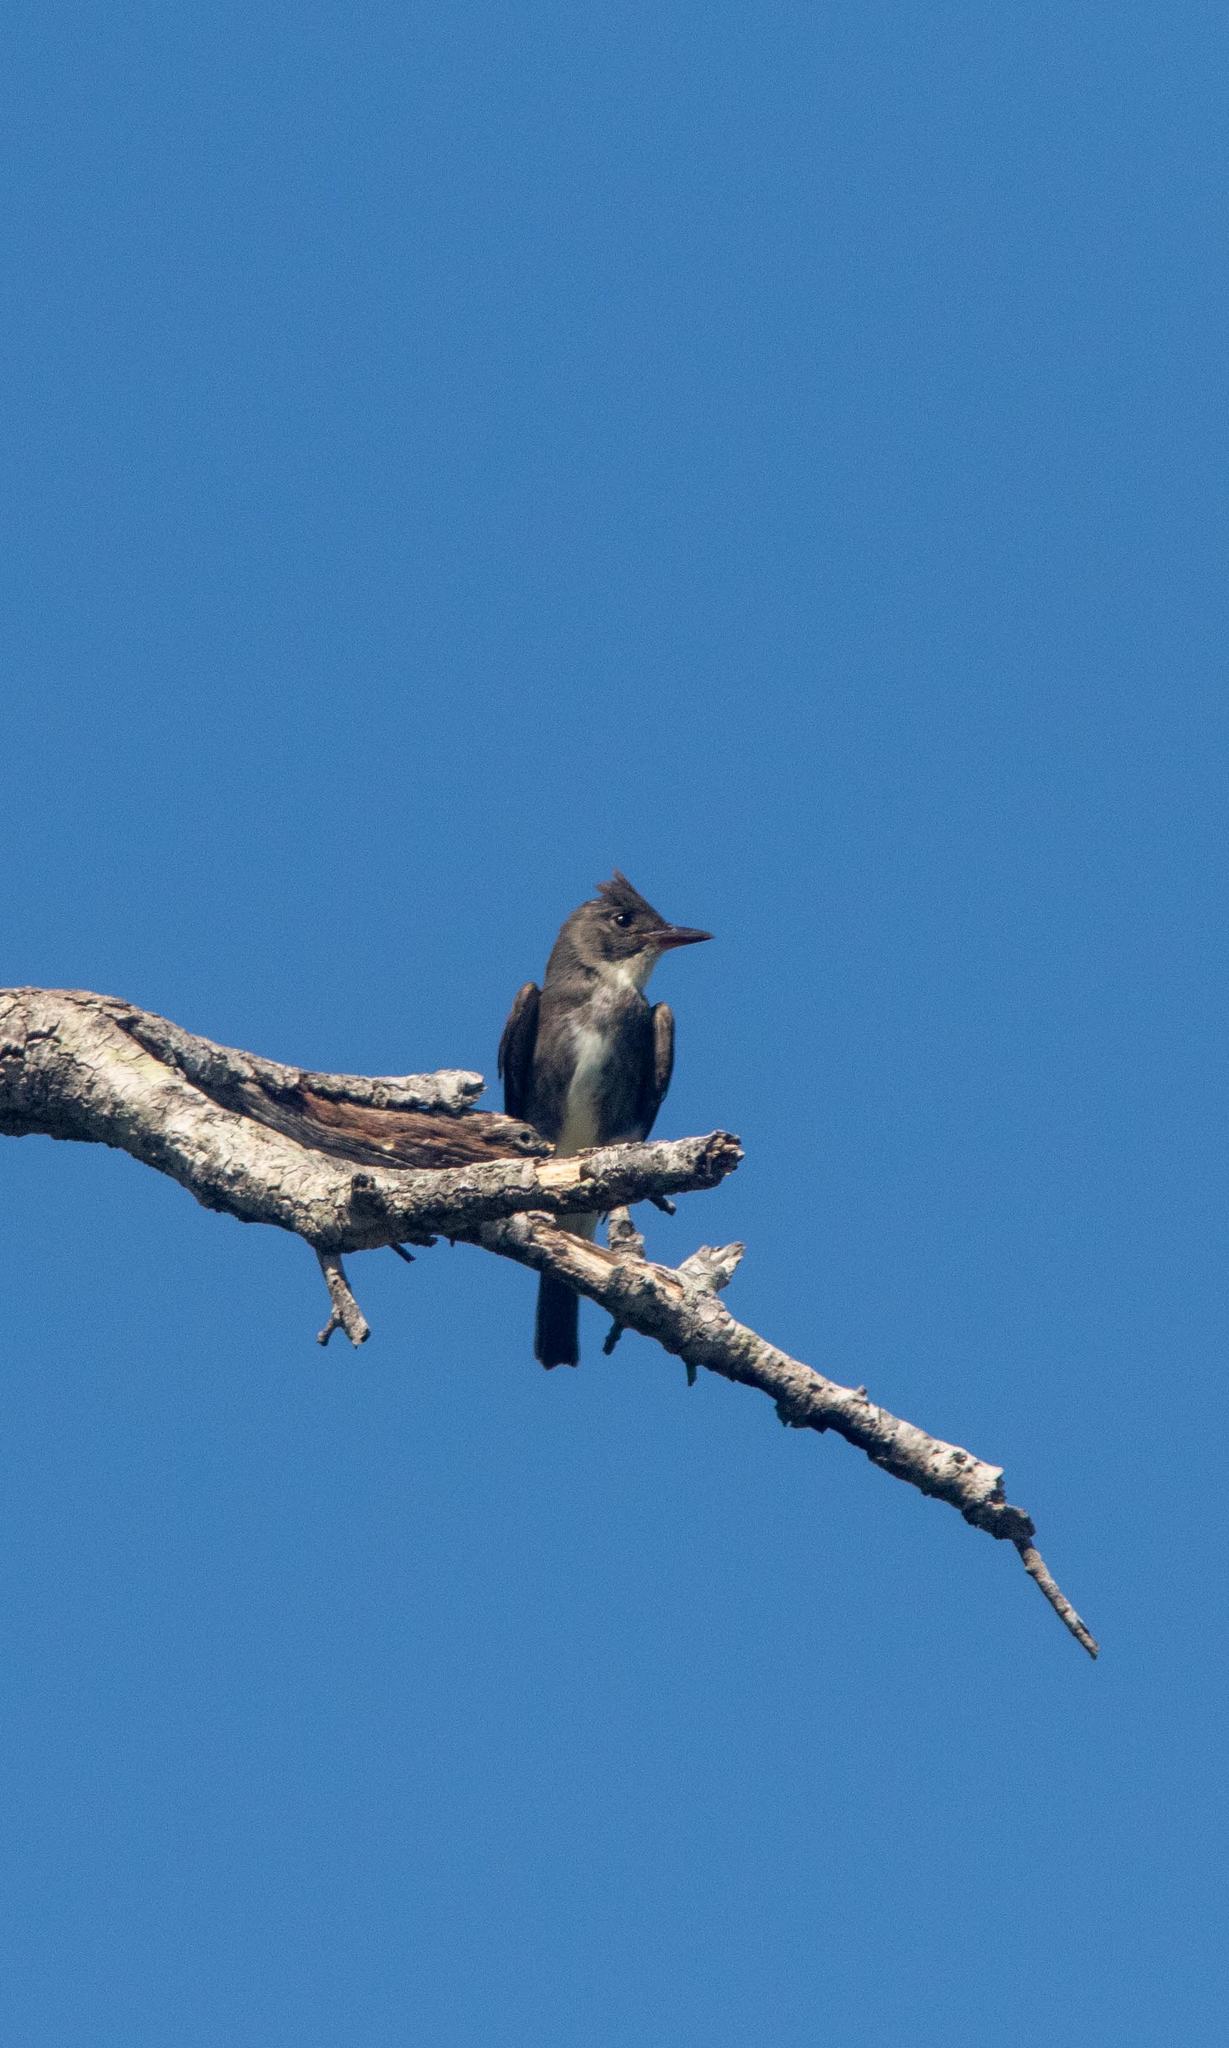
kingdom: Animalia
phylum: Chordata
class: Aves
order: Passeriformes
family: Tyrannidae
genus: Contopus
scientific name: Contopus cooperi
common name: Olive-sided flycatcher
